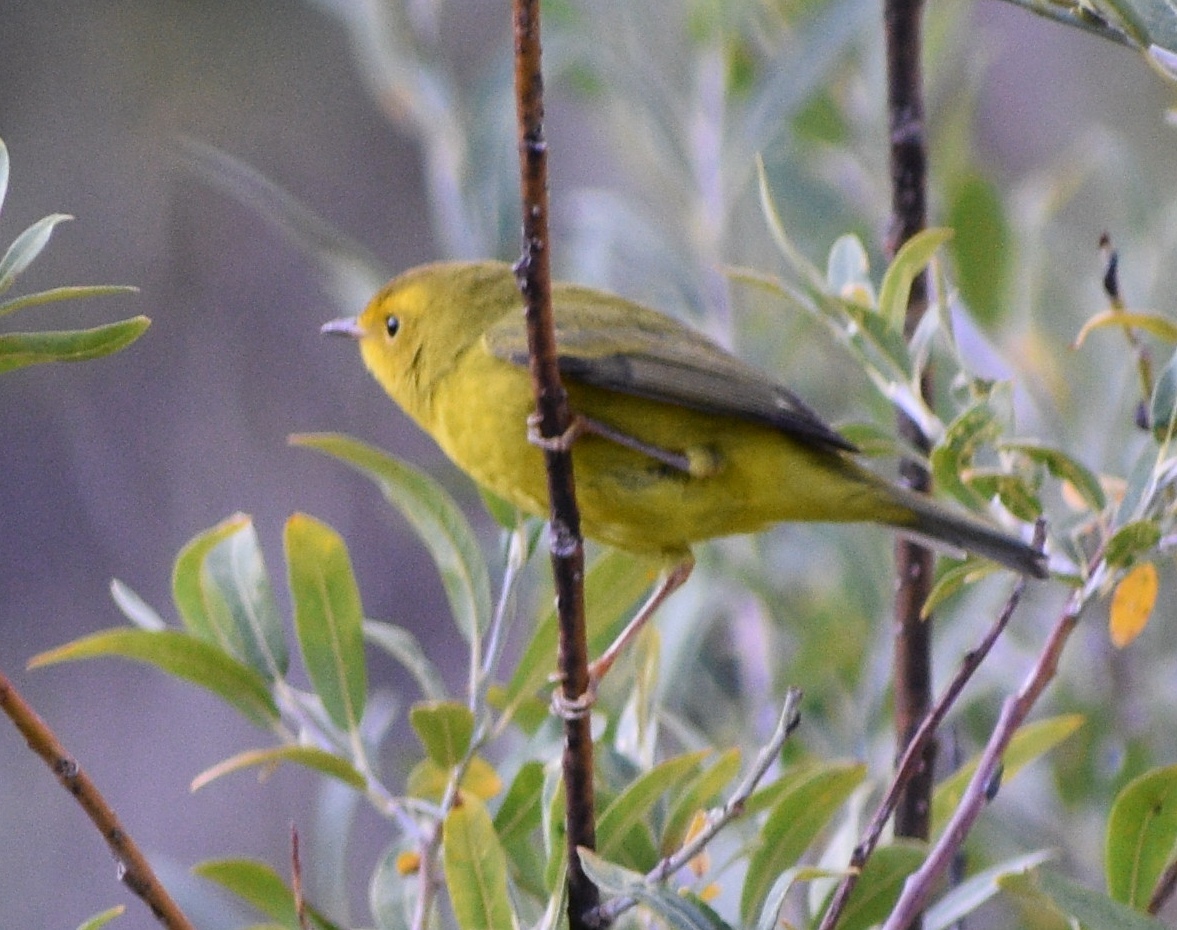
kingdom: Animalia
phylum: Chordata
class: Aves
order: Passeriformes
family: Parulidae
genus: Cardellina
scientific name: Cardellina pusilla
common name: Wilson's warbler
